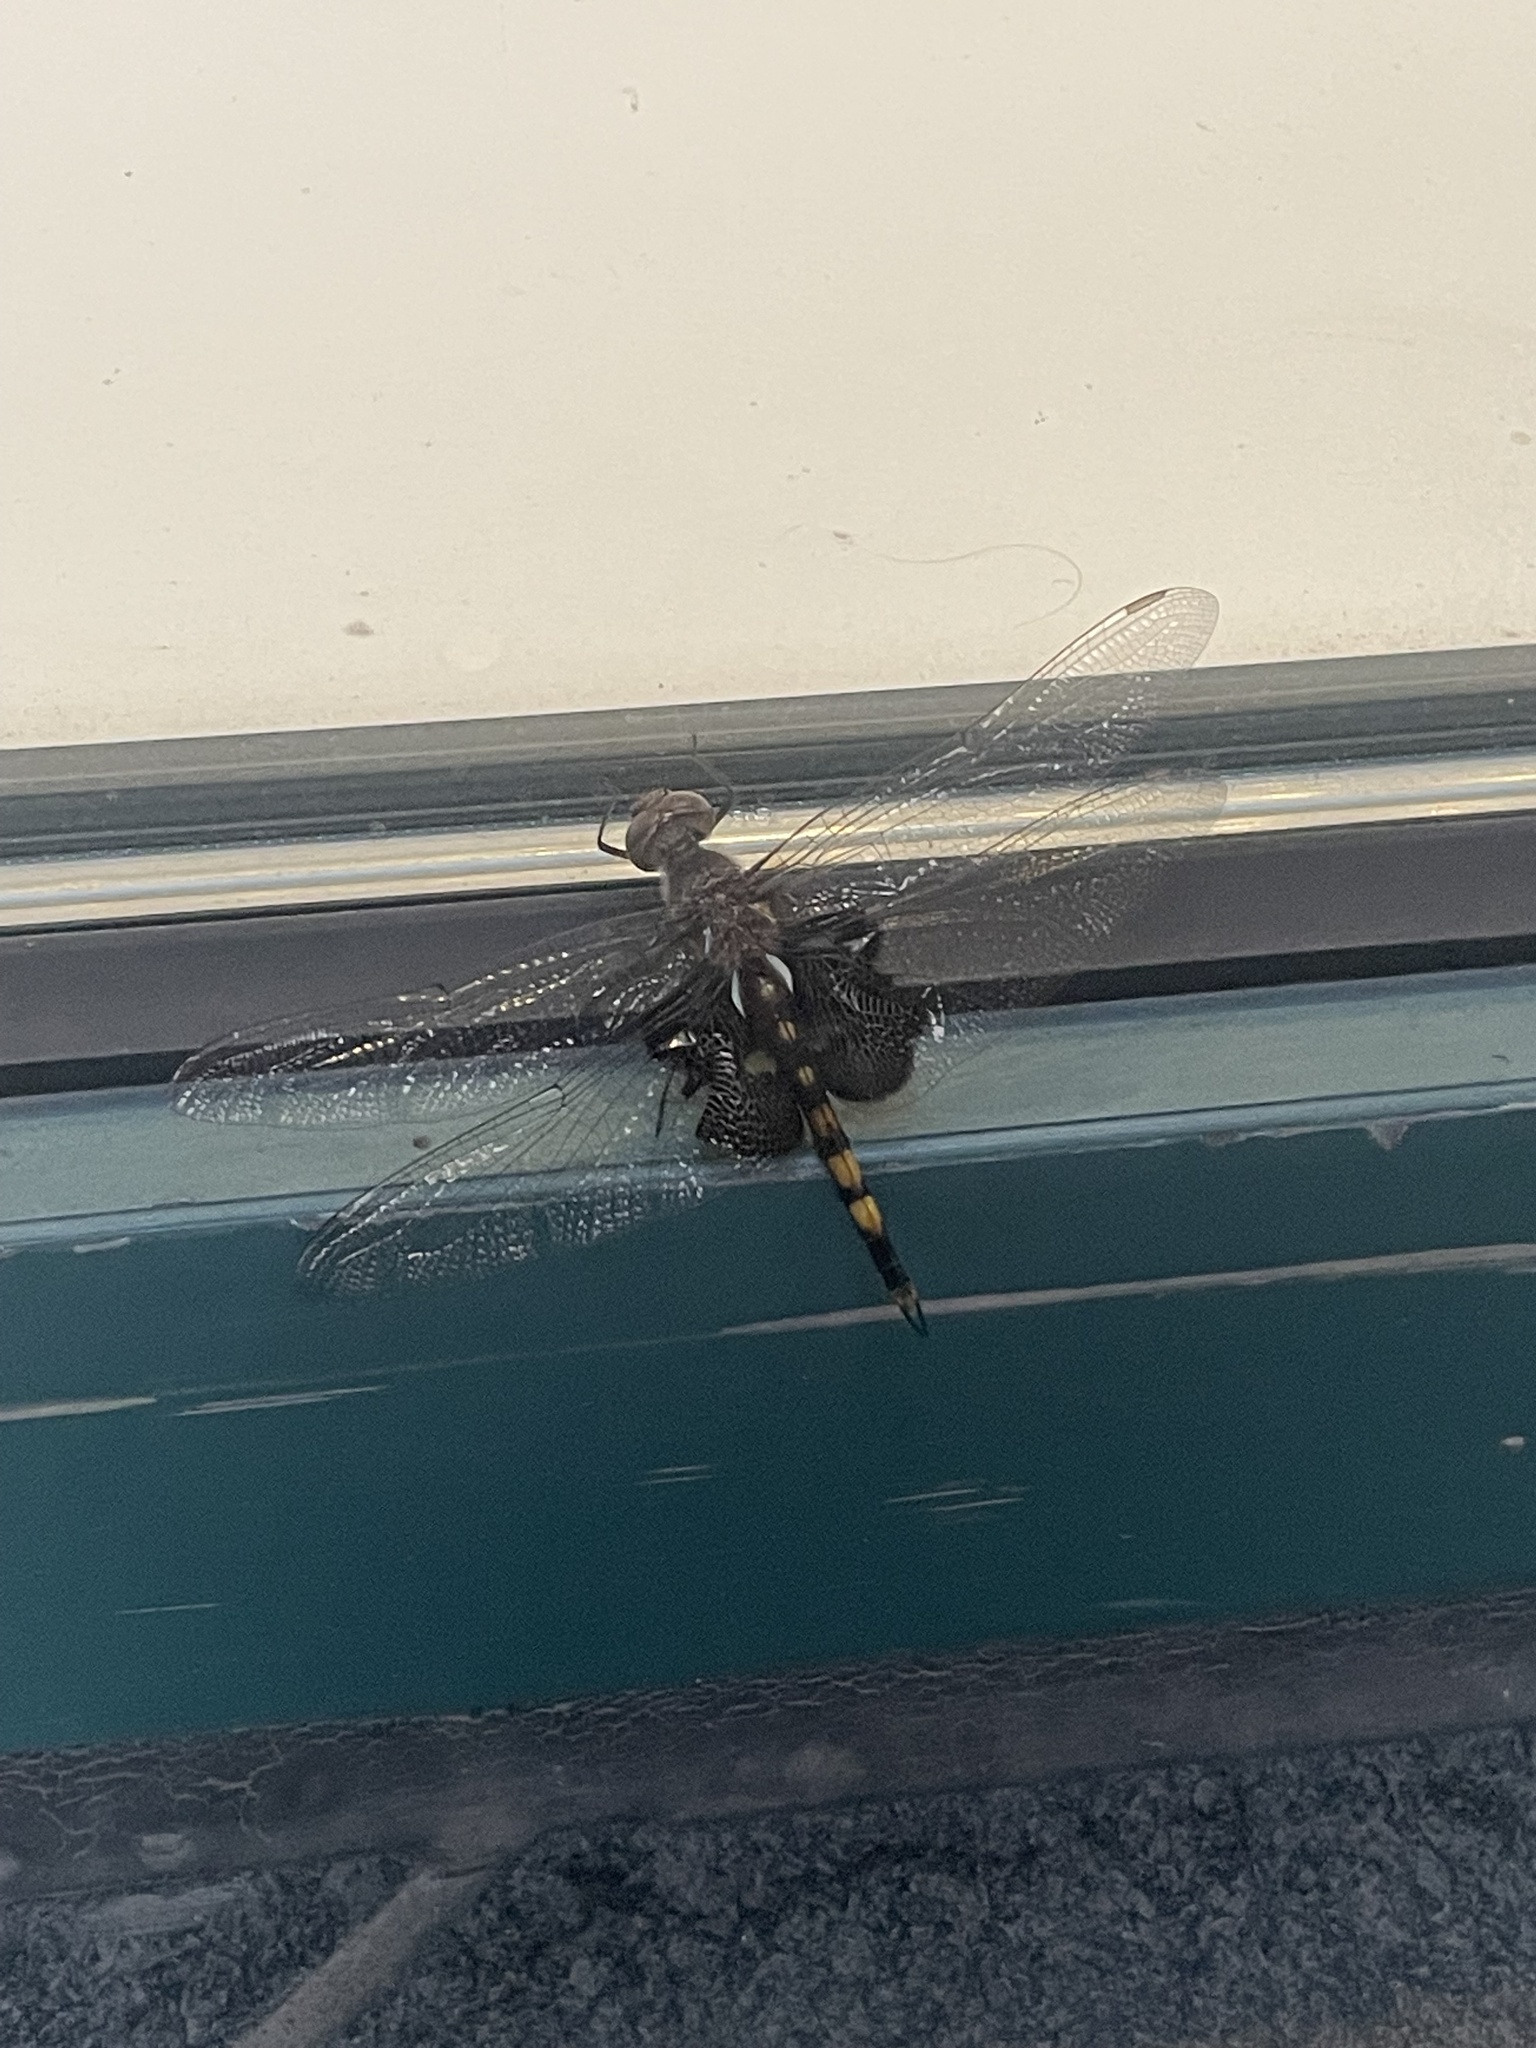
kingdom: Animalia
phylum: Arthropoda
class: Insecta
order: Odonata
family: Libellulidae
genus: Tramea
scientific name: Tramea lacerata
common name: Black saddlebags
